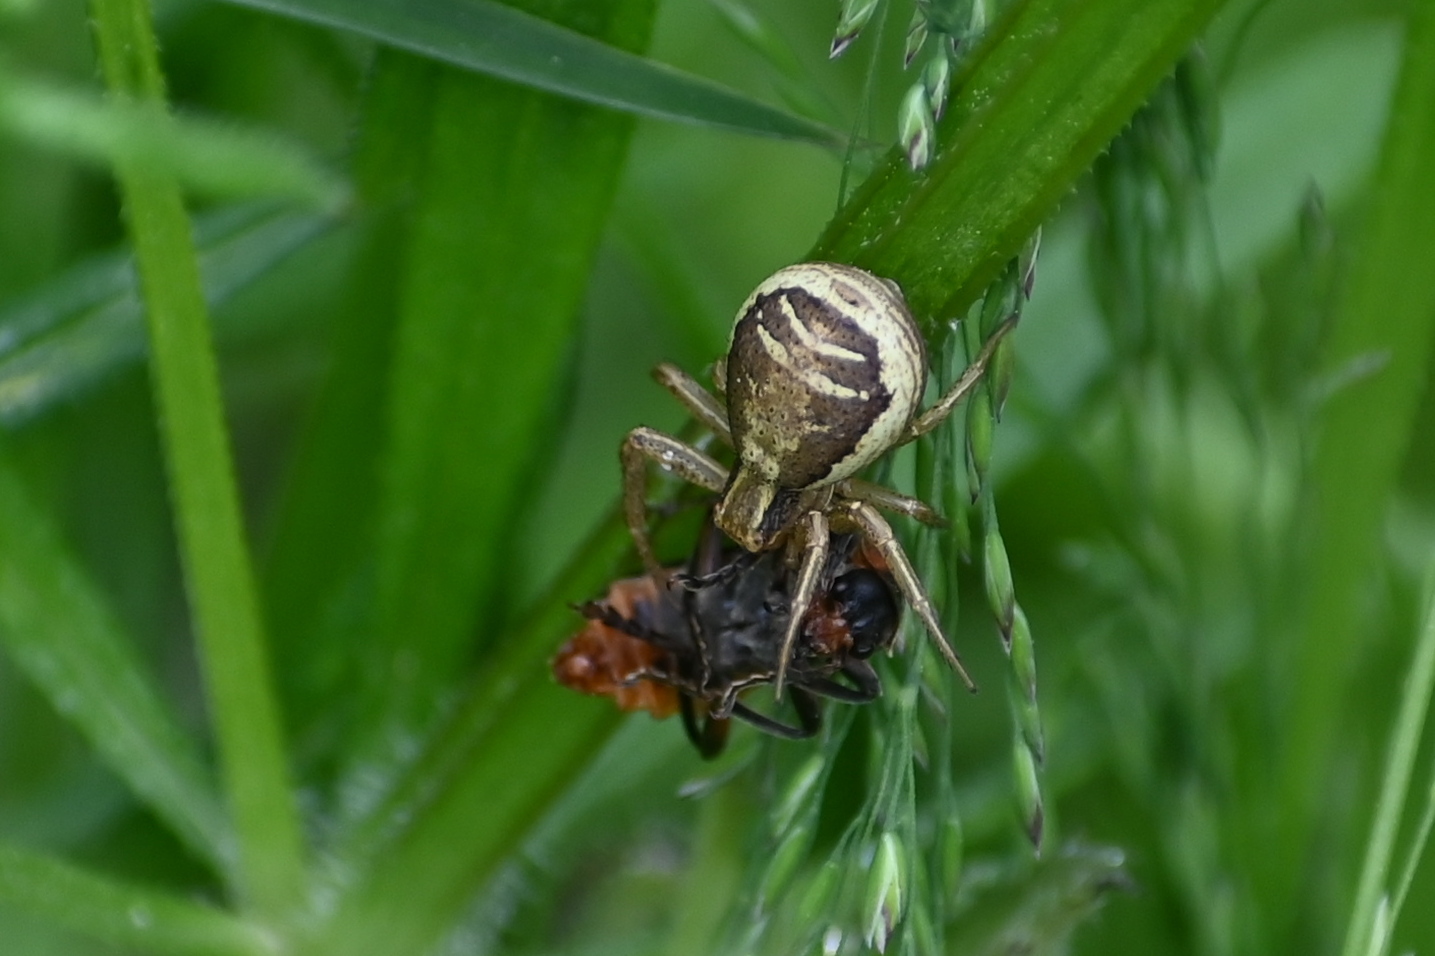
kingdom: Animalia
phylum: Arthropoda
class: Arachnida
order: Araneae
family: Thomisidae
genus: Xysticus
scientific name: Xysticus ulmi
